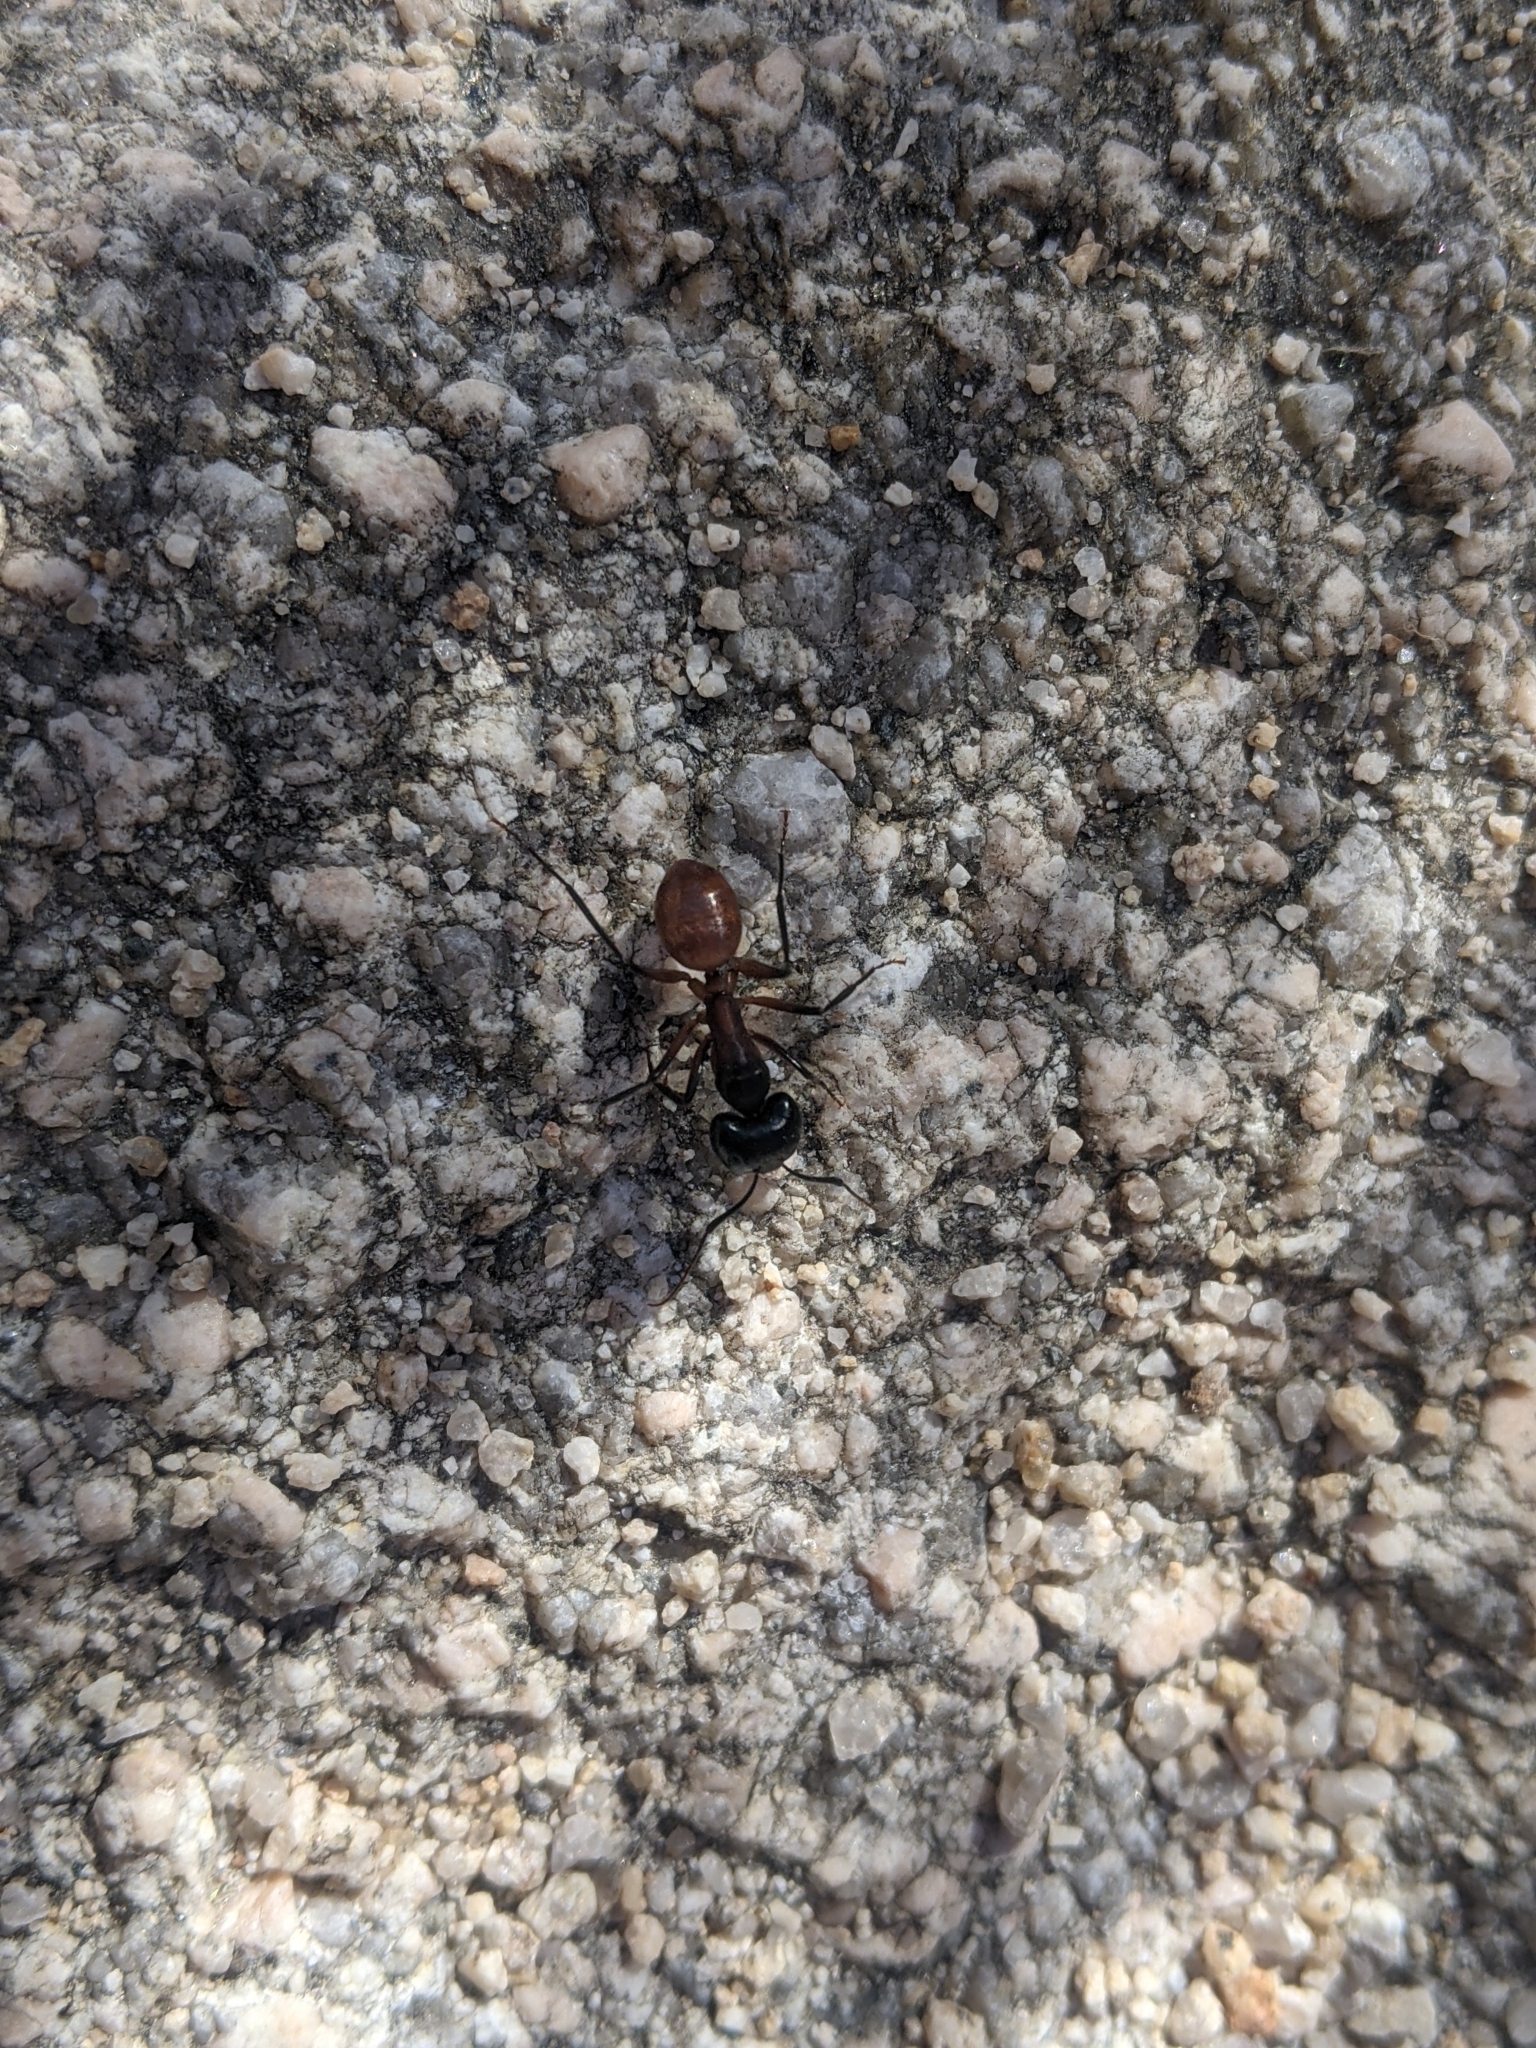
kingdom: Animalia
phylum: Arthropoda
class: Insecta
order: Hymenoptera
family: Formicidae
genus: Camponotus
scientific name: Camponotus ocreatus
